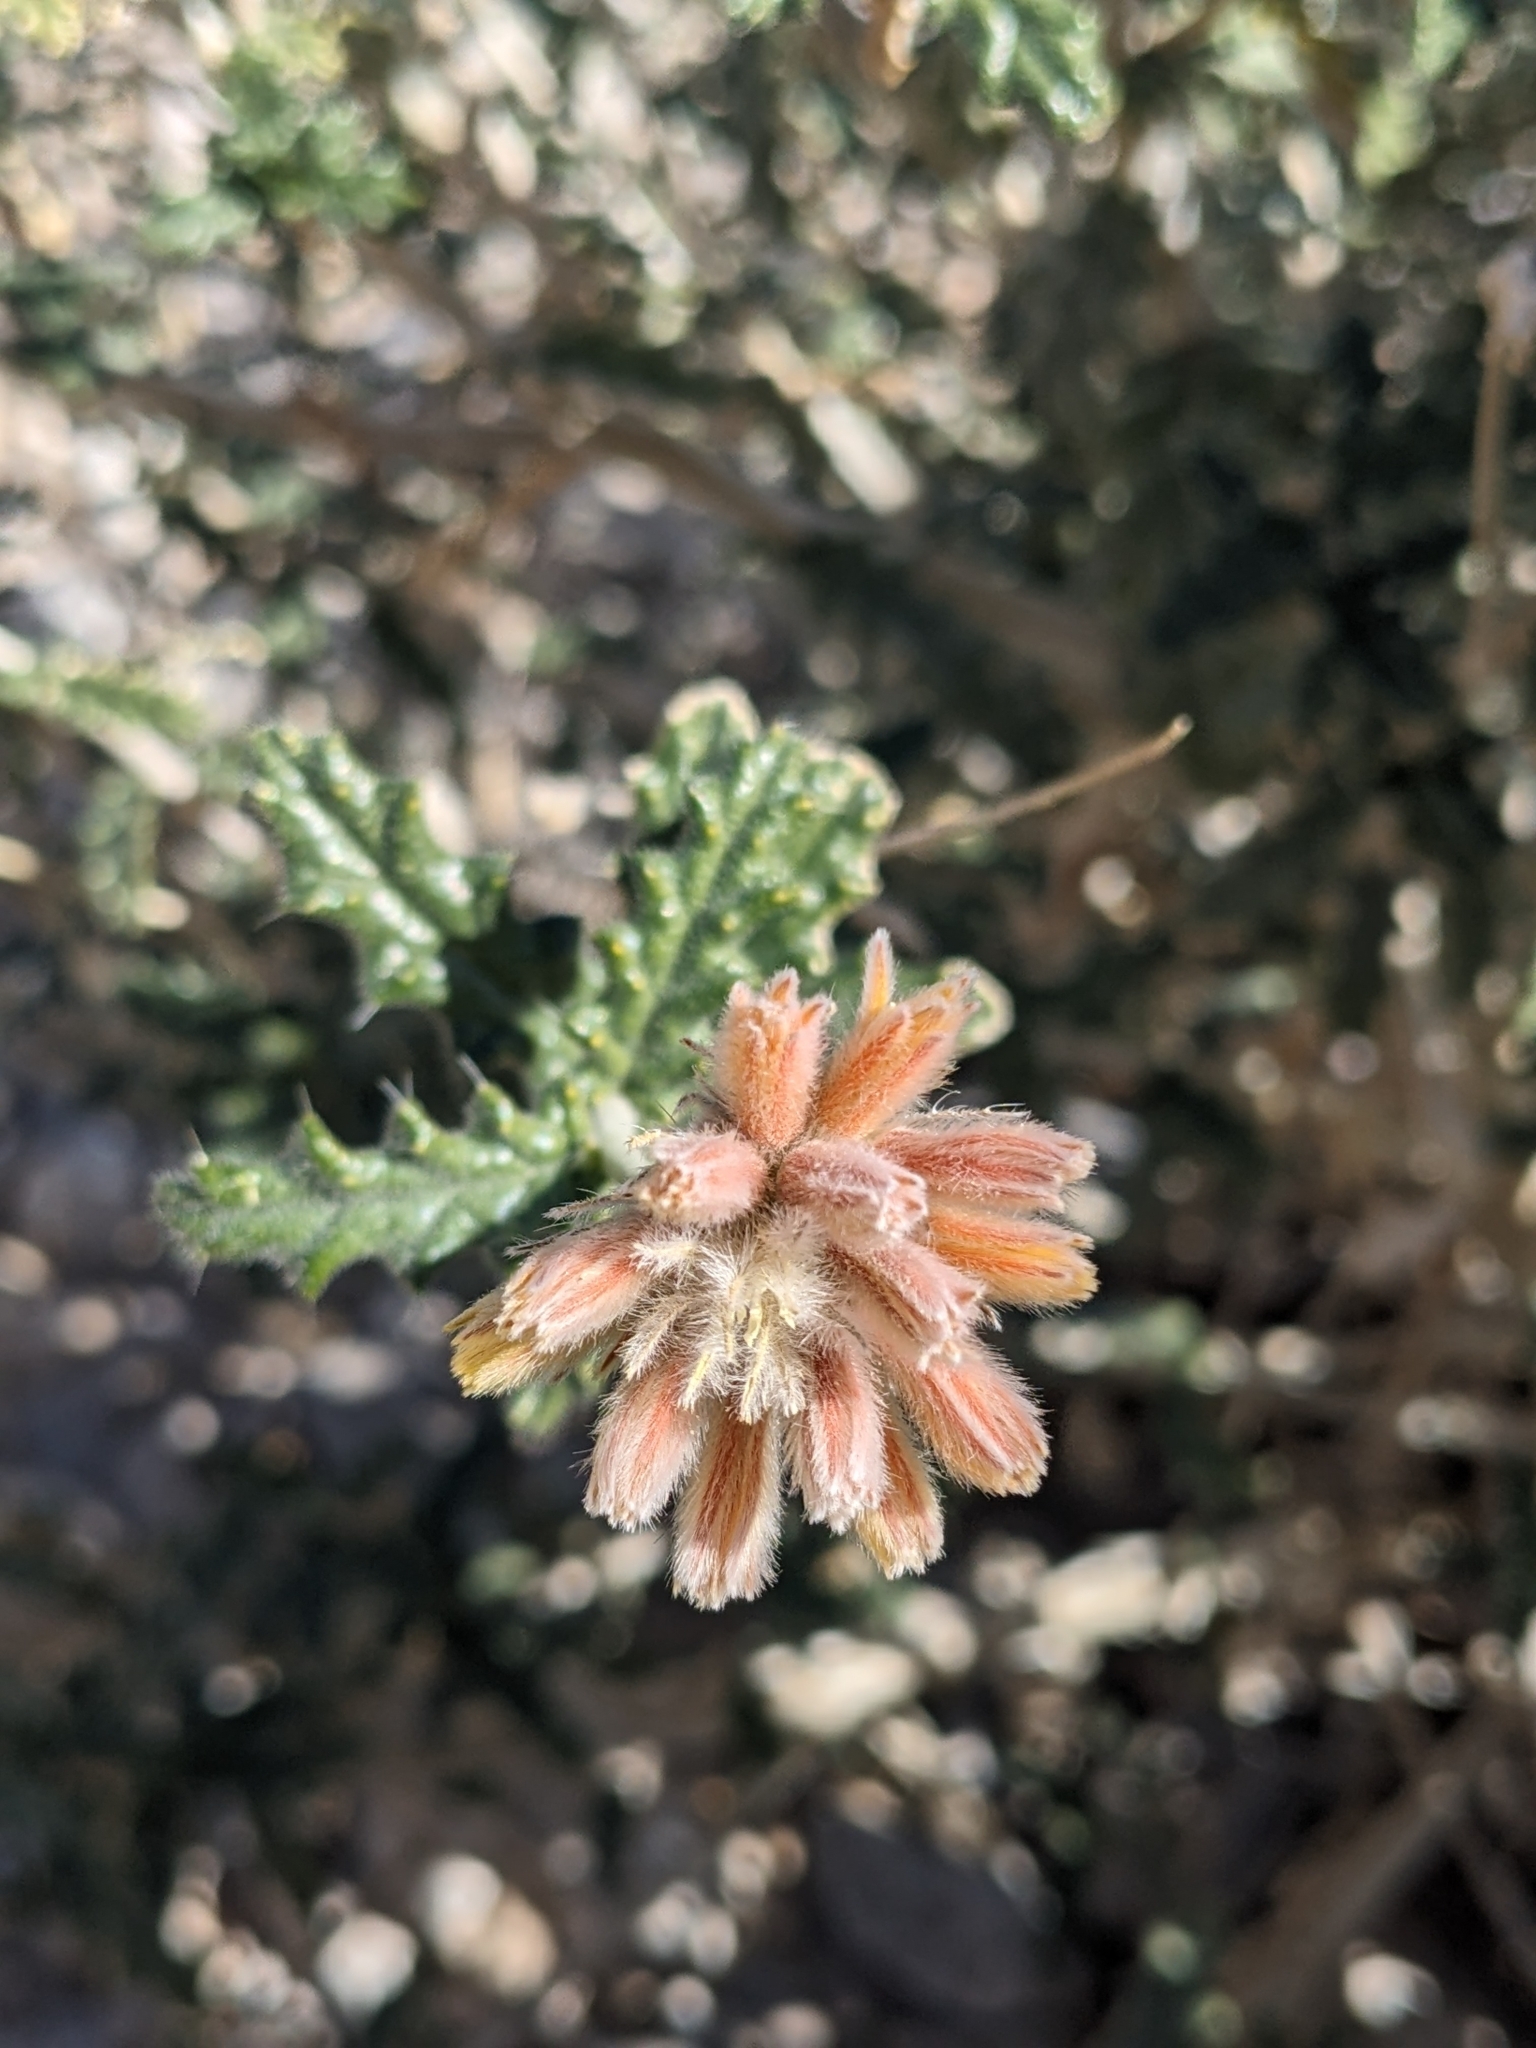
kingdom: Plantae
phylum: Tracheophyta
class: Magnoliopsida
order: Cornales
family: Loasaceae
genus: Cevallia
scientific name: Cevallia sinuata
